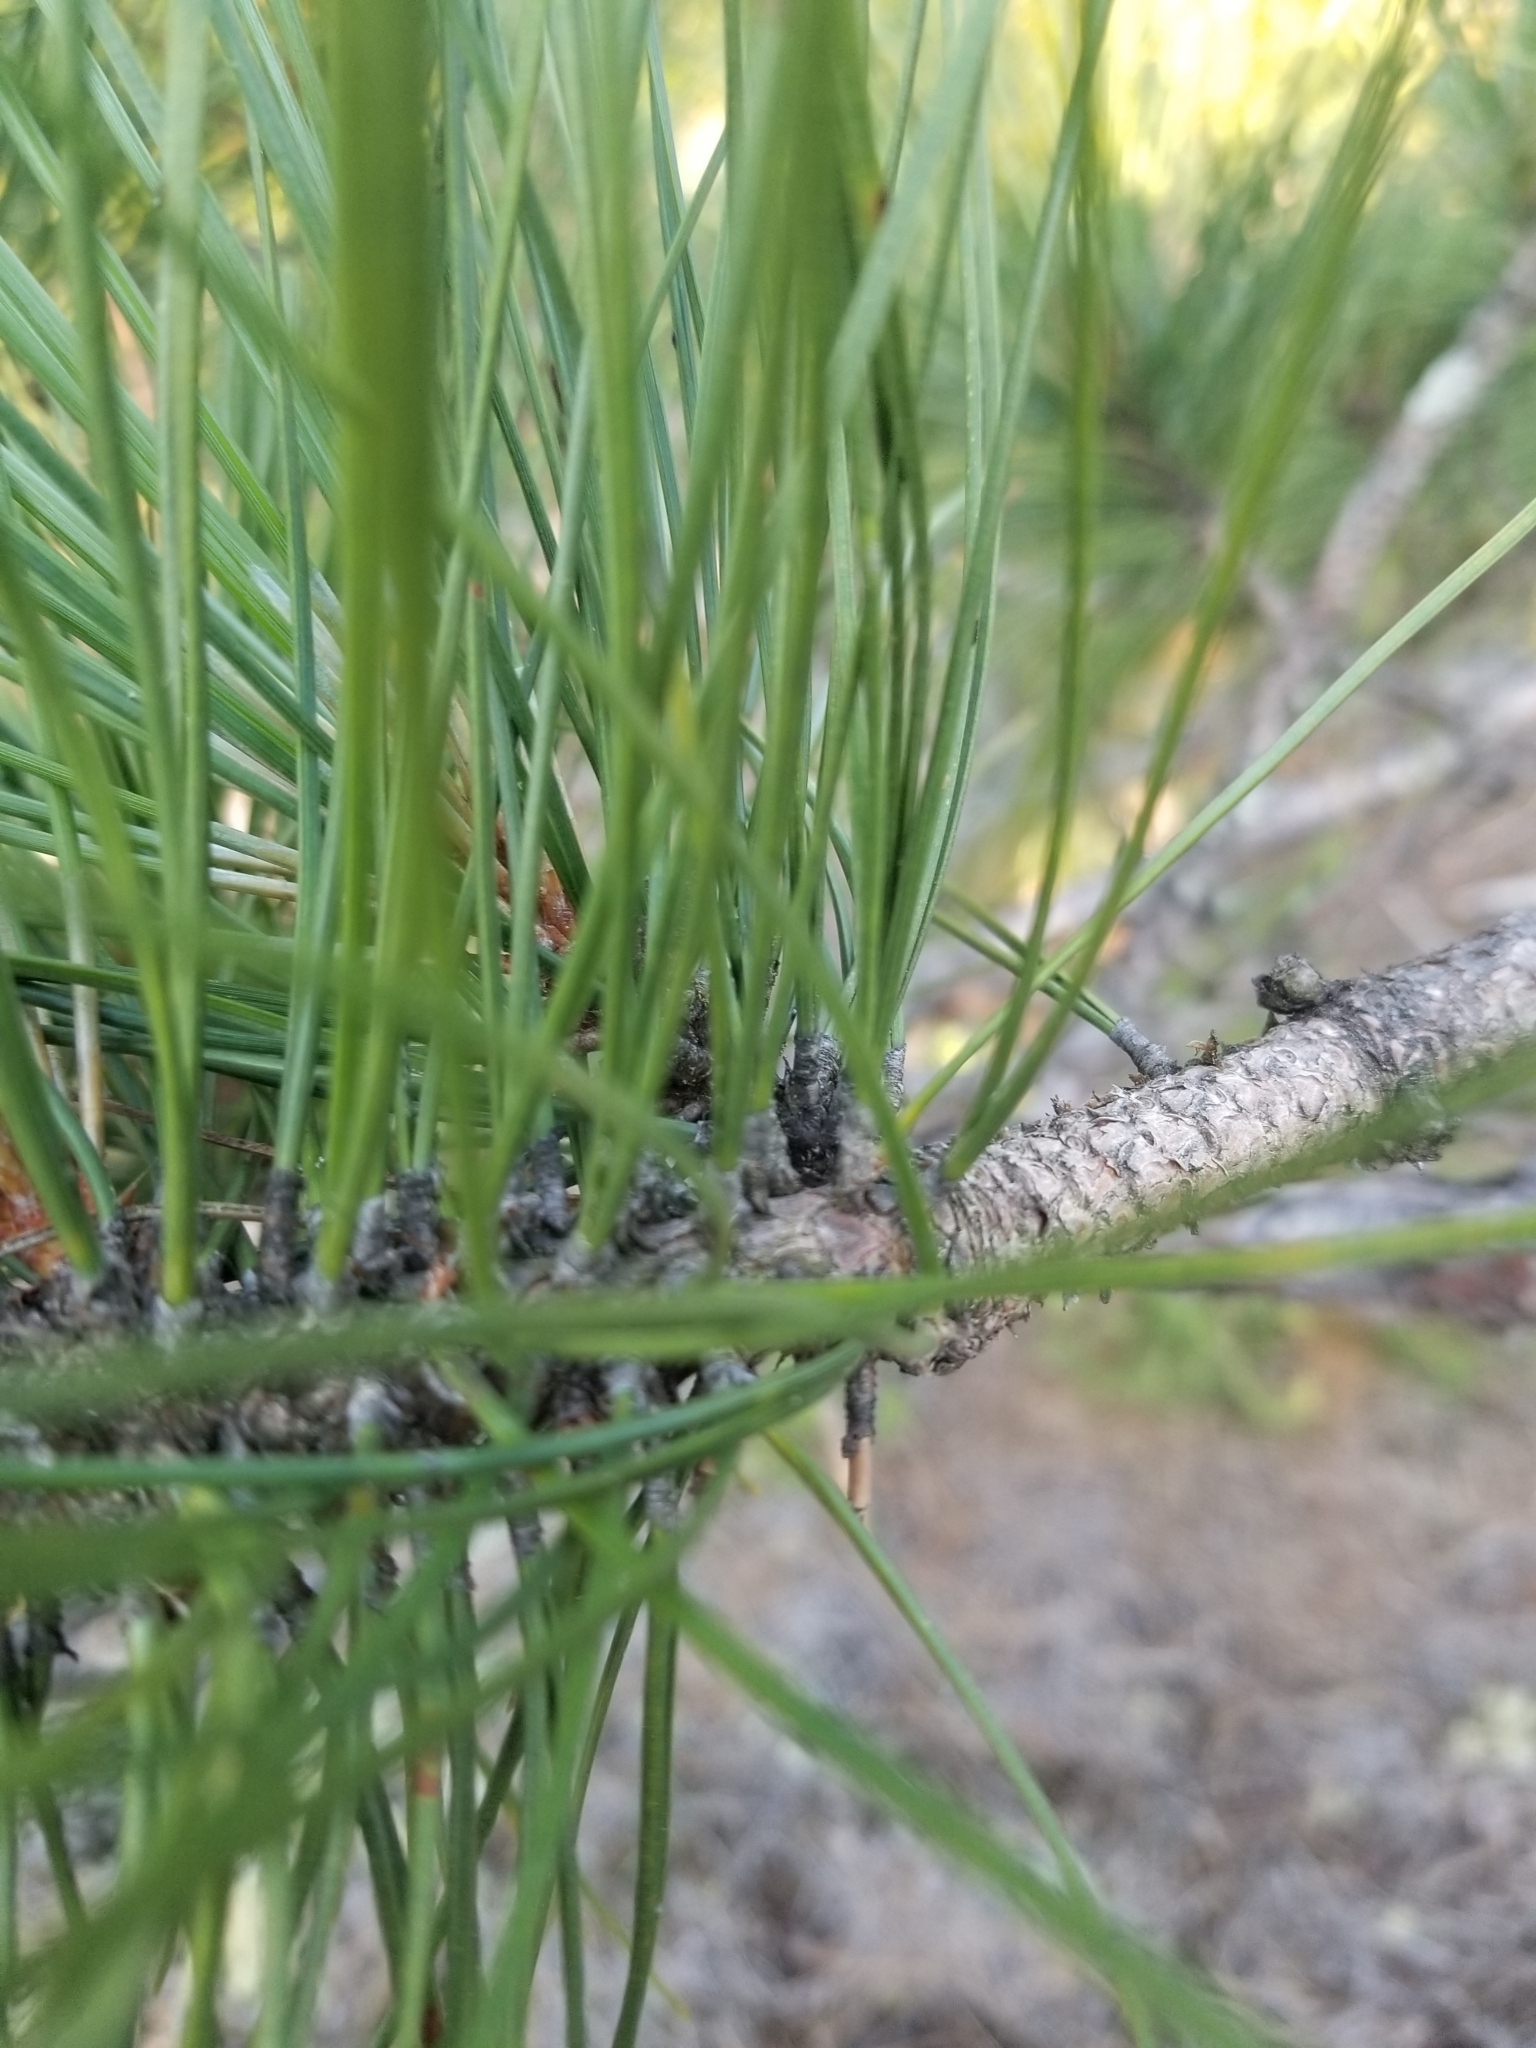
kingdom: Plantae
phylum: Tracheophyta
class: Pinopsida
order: Pinales
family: Pinaceae
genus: Pinus
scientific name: Pinus resinosa
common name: Norway pine
